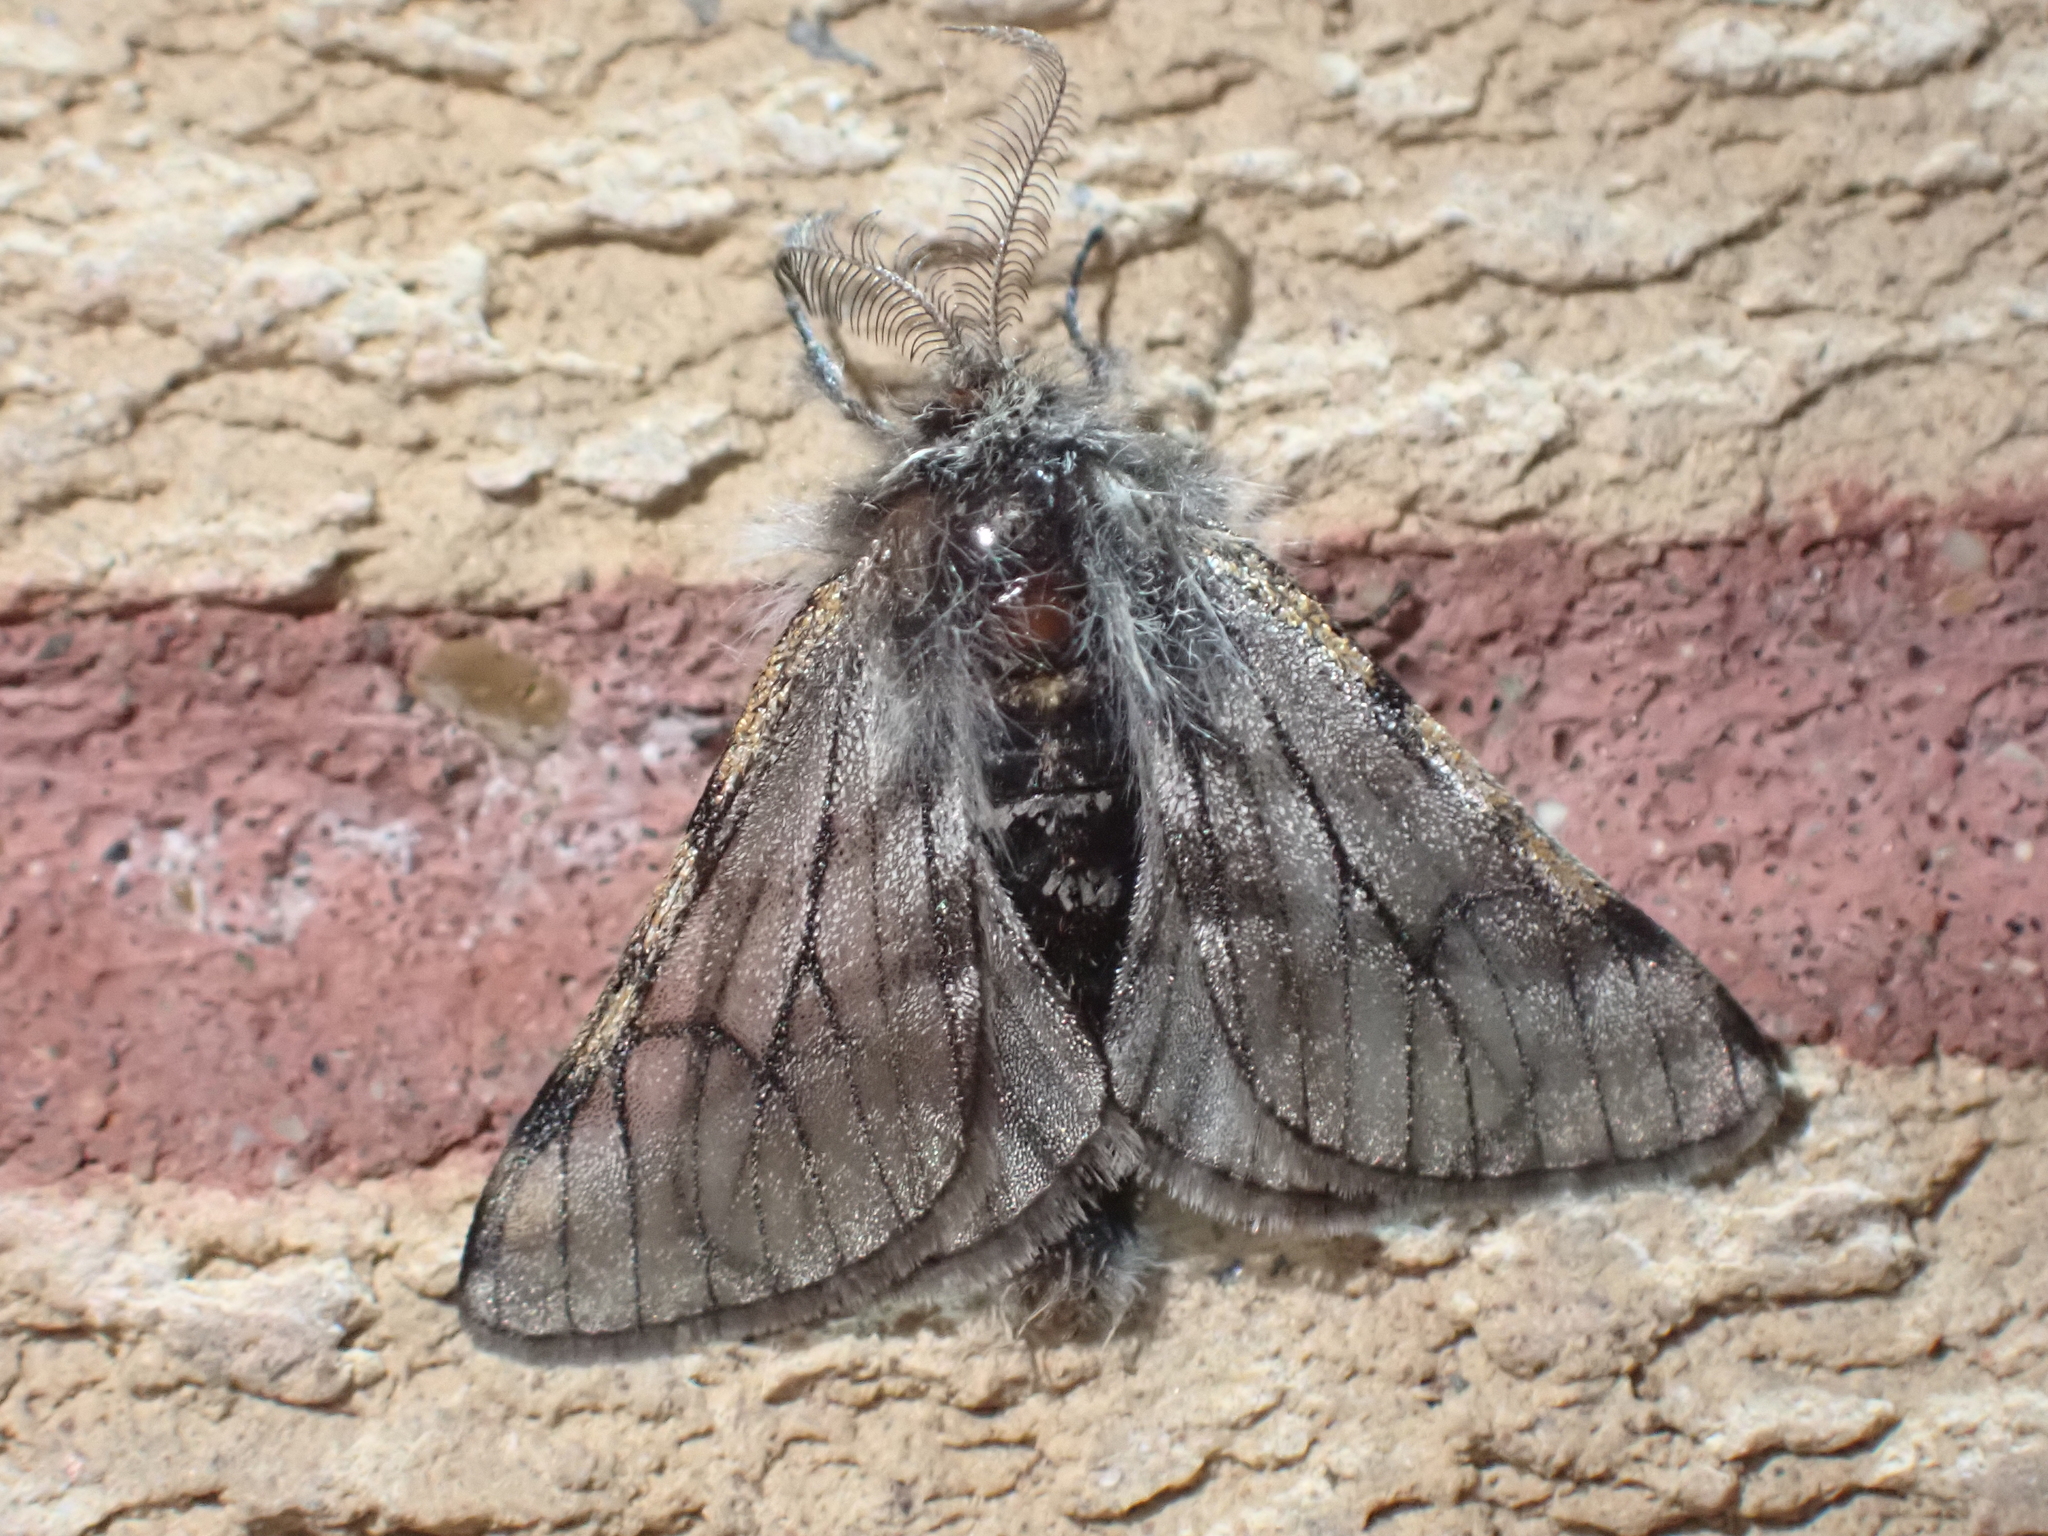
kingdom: Animalia
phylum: Arthropoda
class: Insecta
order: Lepidoptera
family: Geometridae
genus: Lycia
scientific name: Lycia rachelae
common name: Twilight moth
